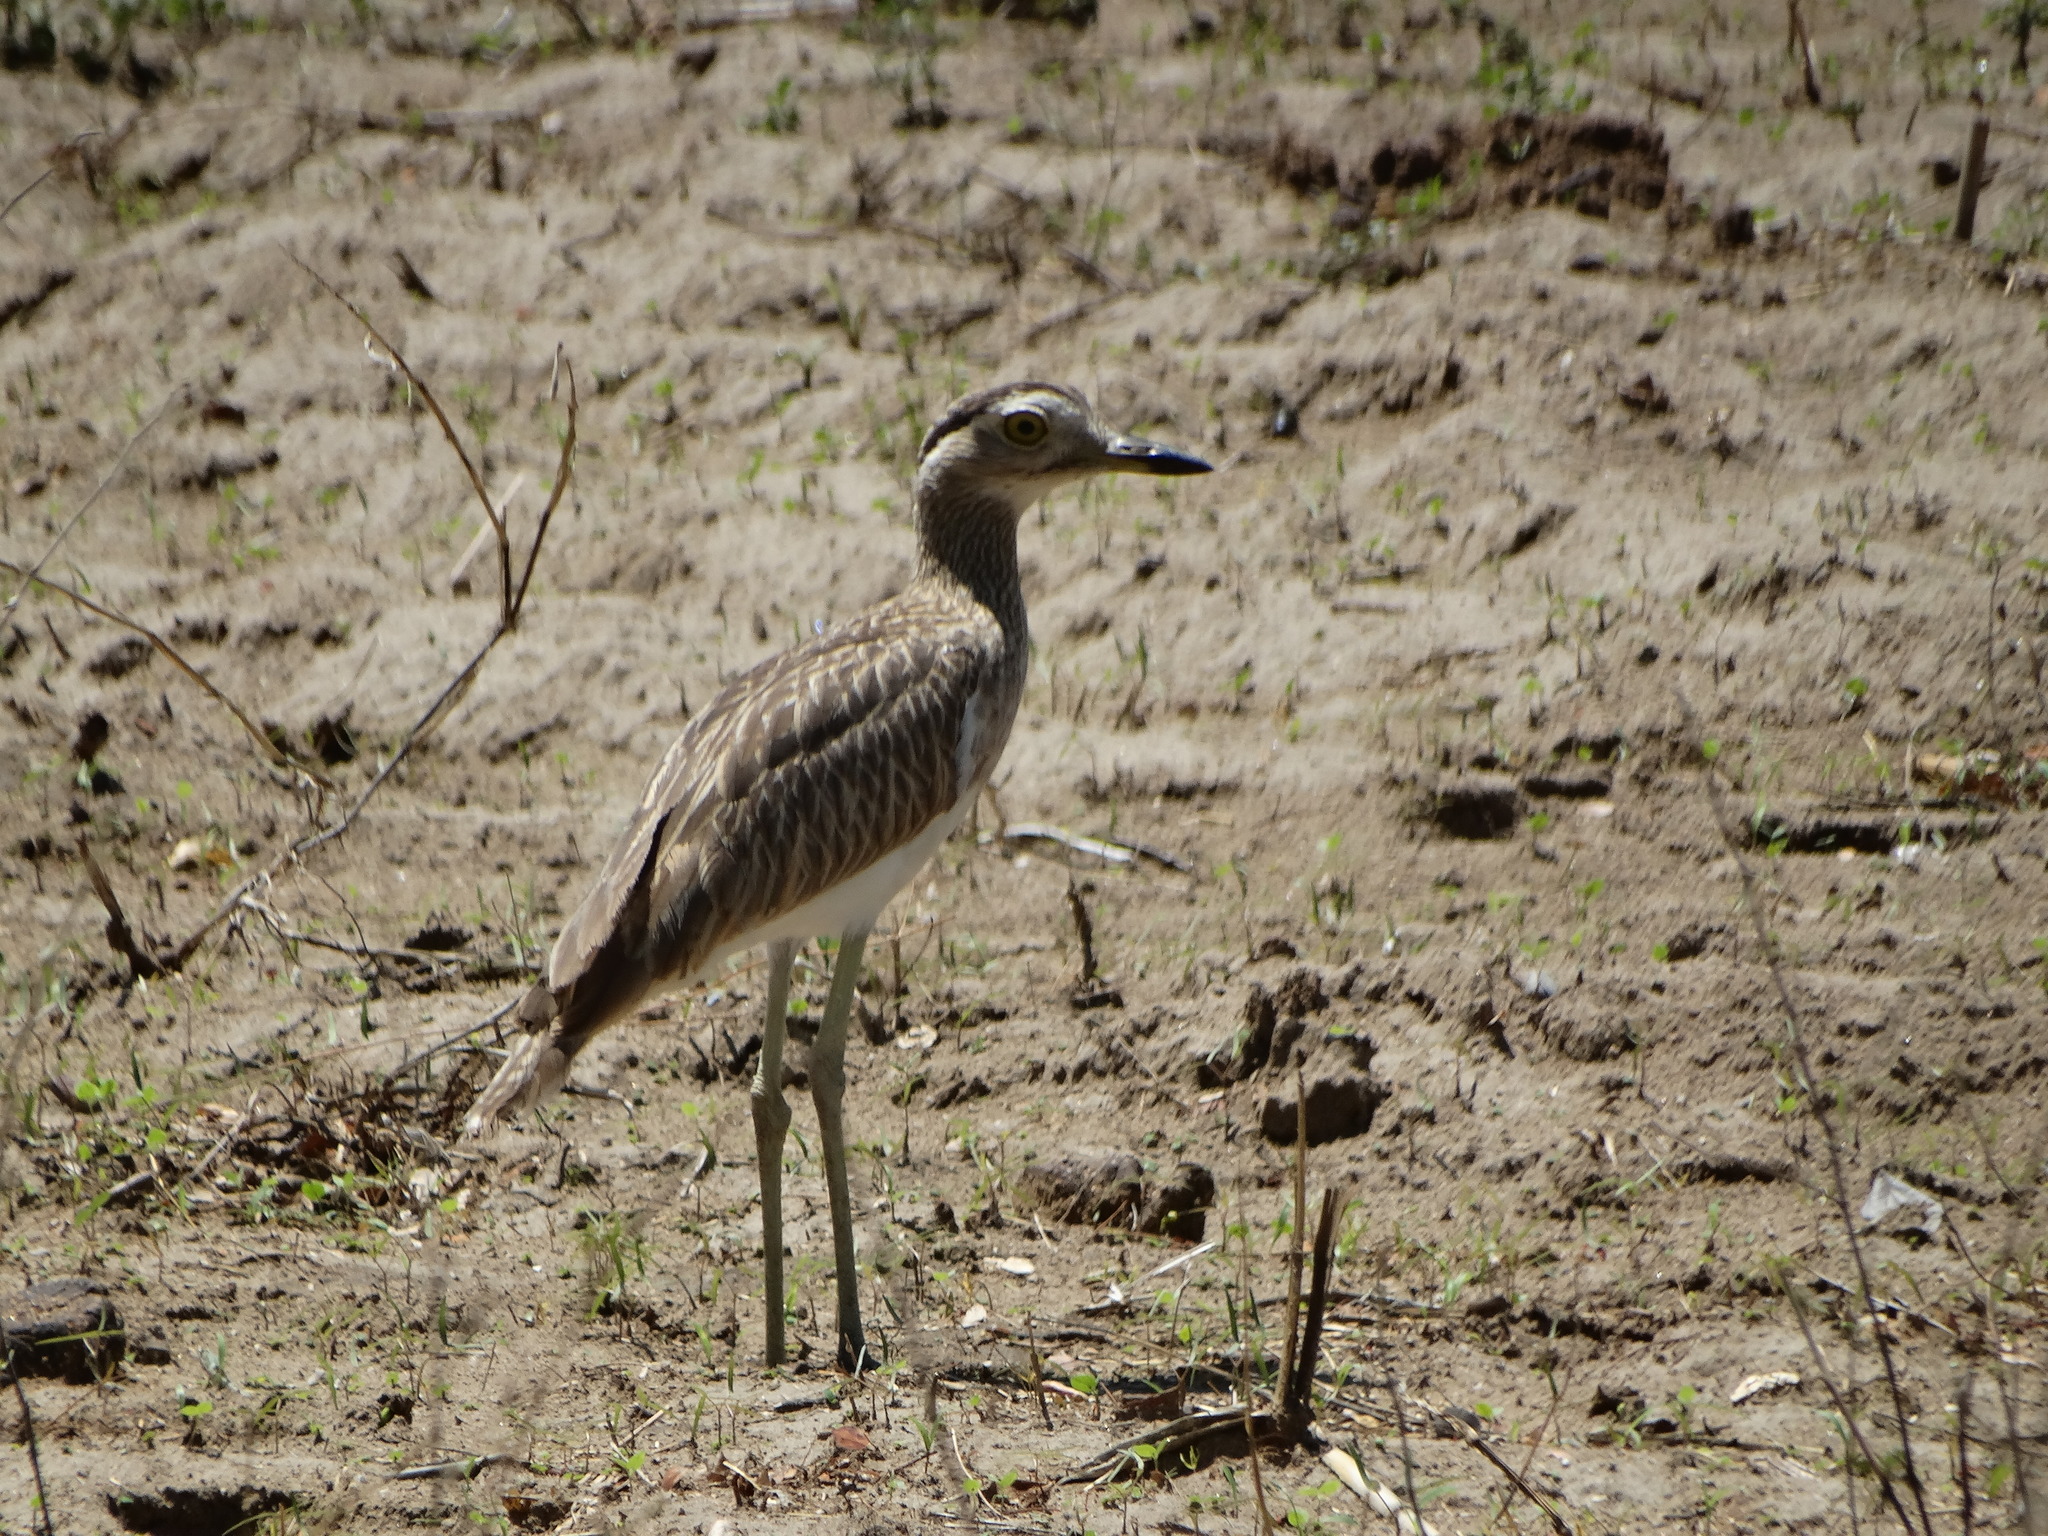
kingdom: Animalia
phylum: Chordata
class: Aves
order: Charadriiformes
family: Burhinidae
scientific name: Burhinidae
